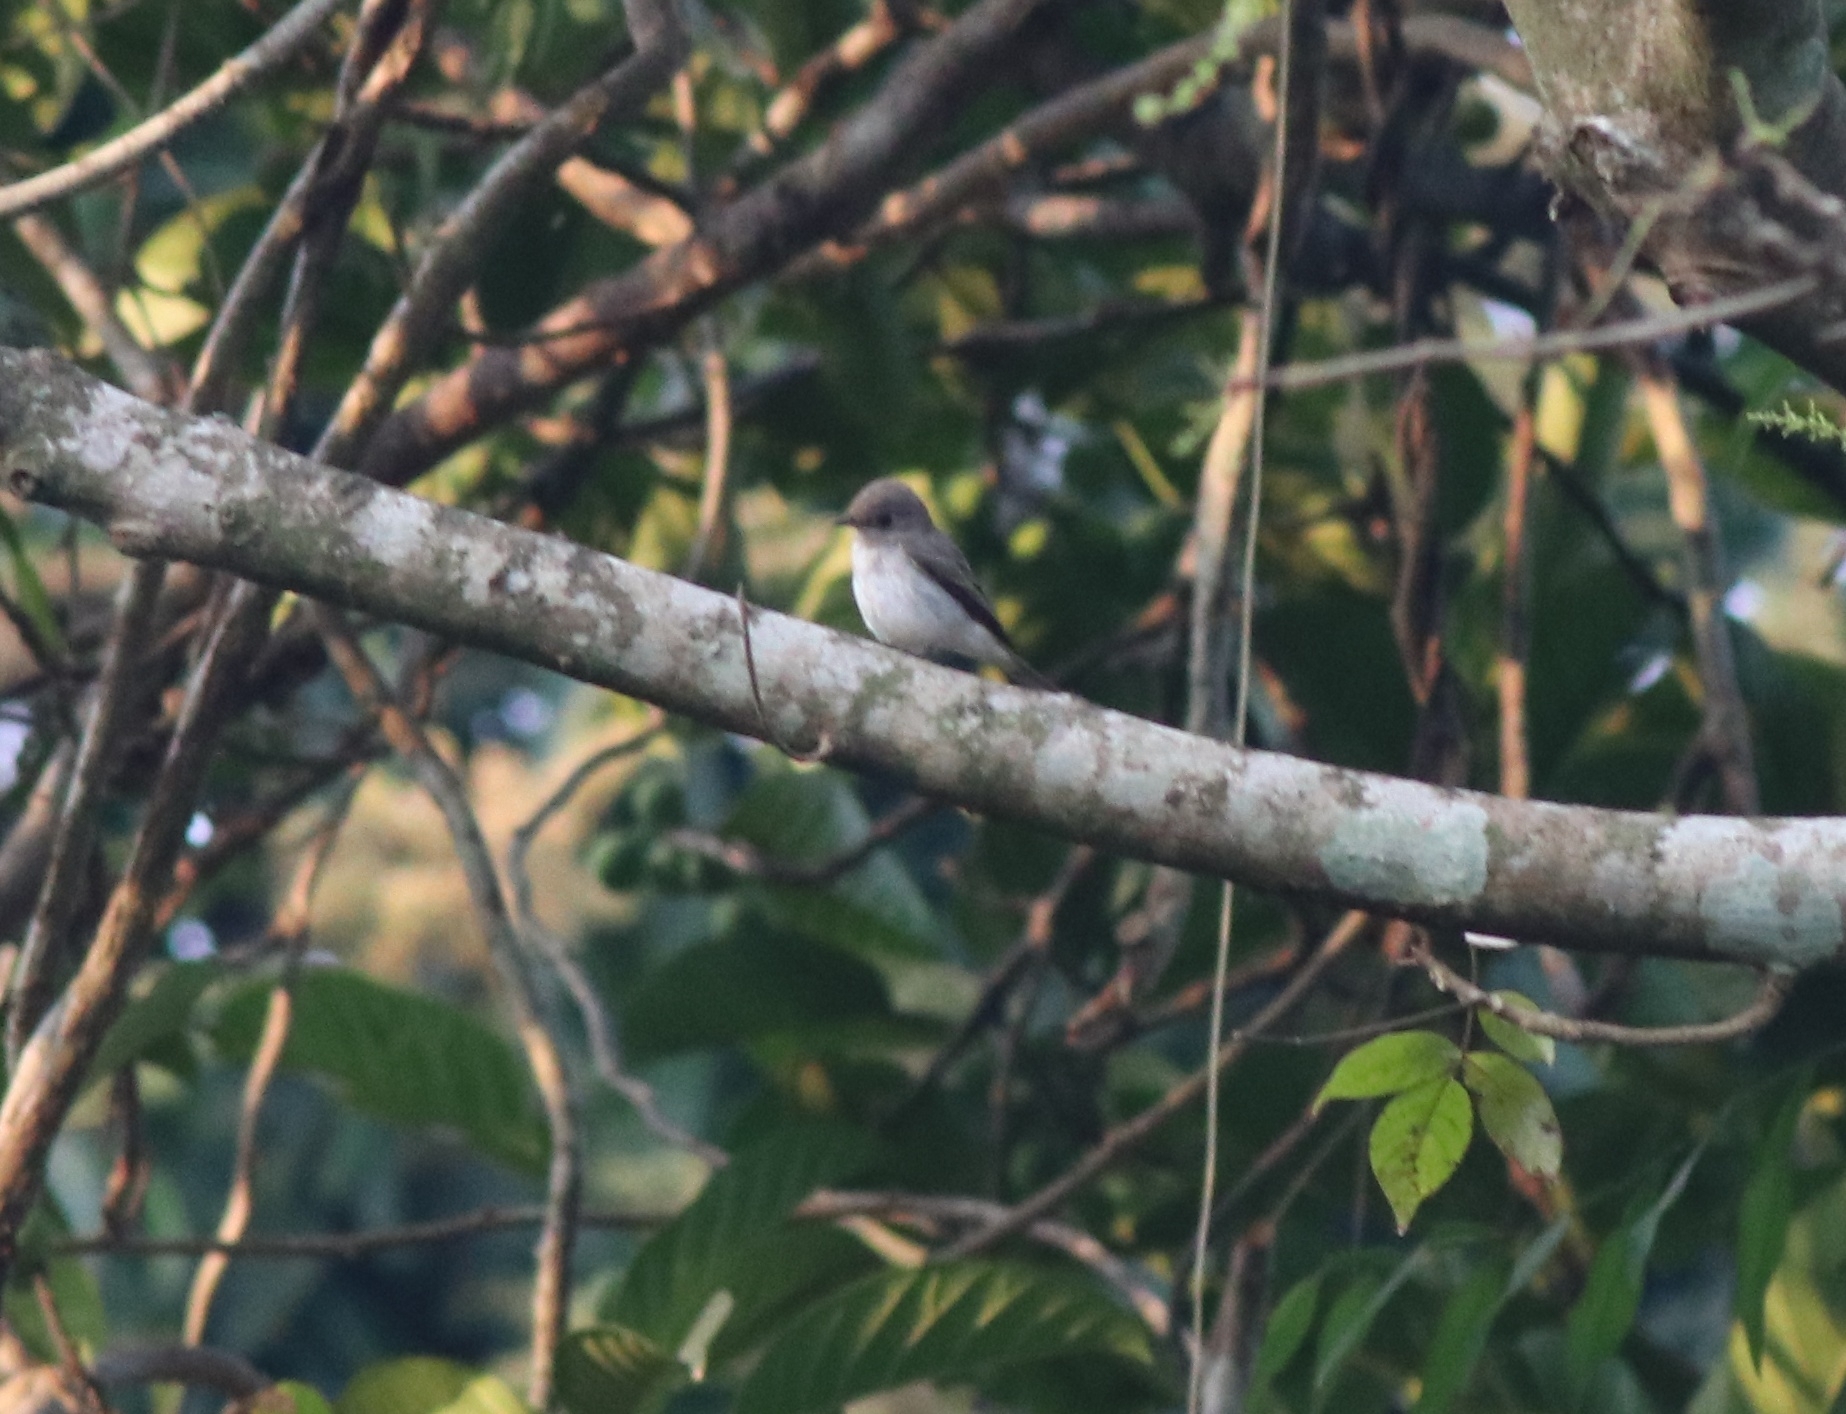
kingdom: Animalia
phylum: Chordata
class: Aves
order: Passeriformes
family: Muscicapidae
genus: Muscicapa
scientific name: Muscicapa latirostris
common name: Asian brown flycatcher
